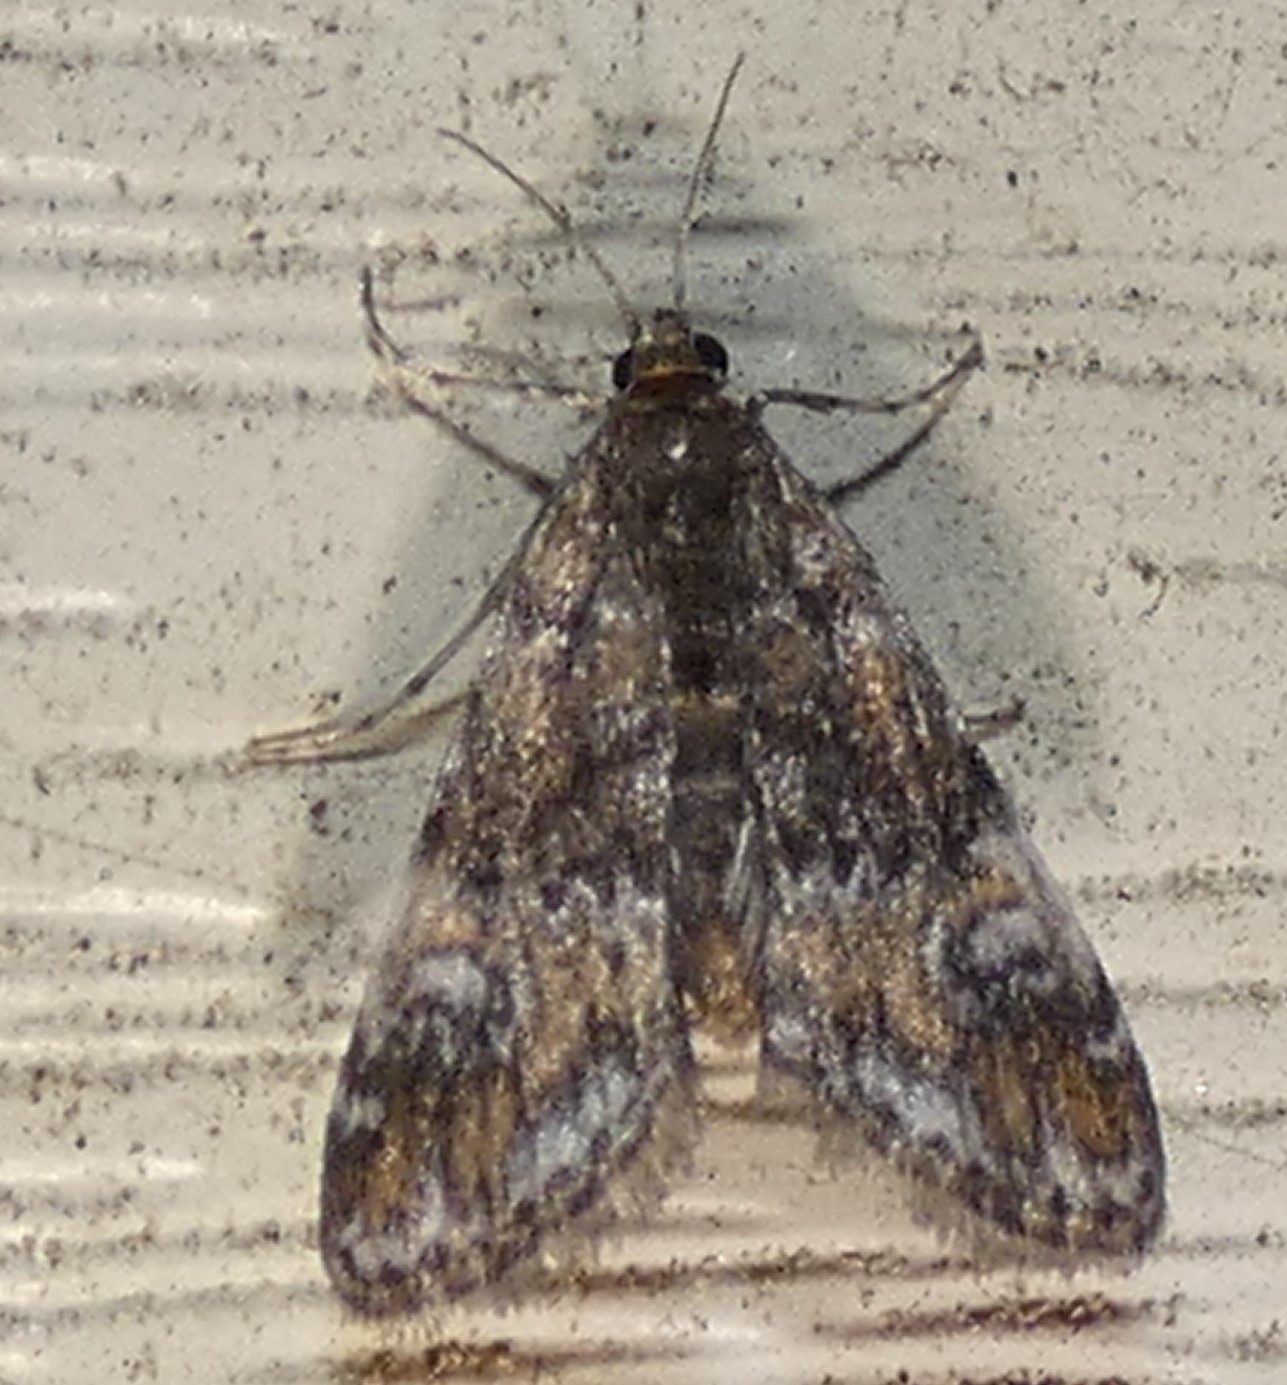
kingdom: Animalia
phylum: Arthropoda
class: Insecta
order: Lepidoptera
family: Crambidae
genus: Elophila
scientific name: Elophila obliteralis
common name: Waterlily leafcutter moth
